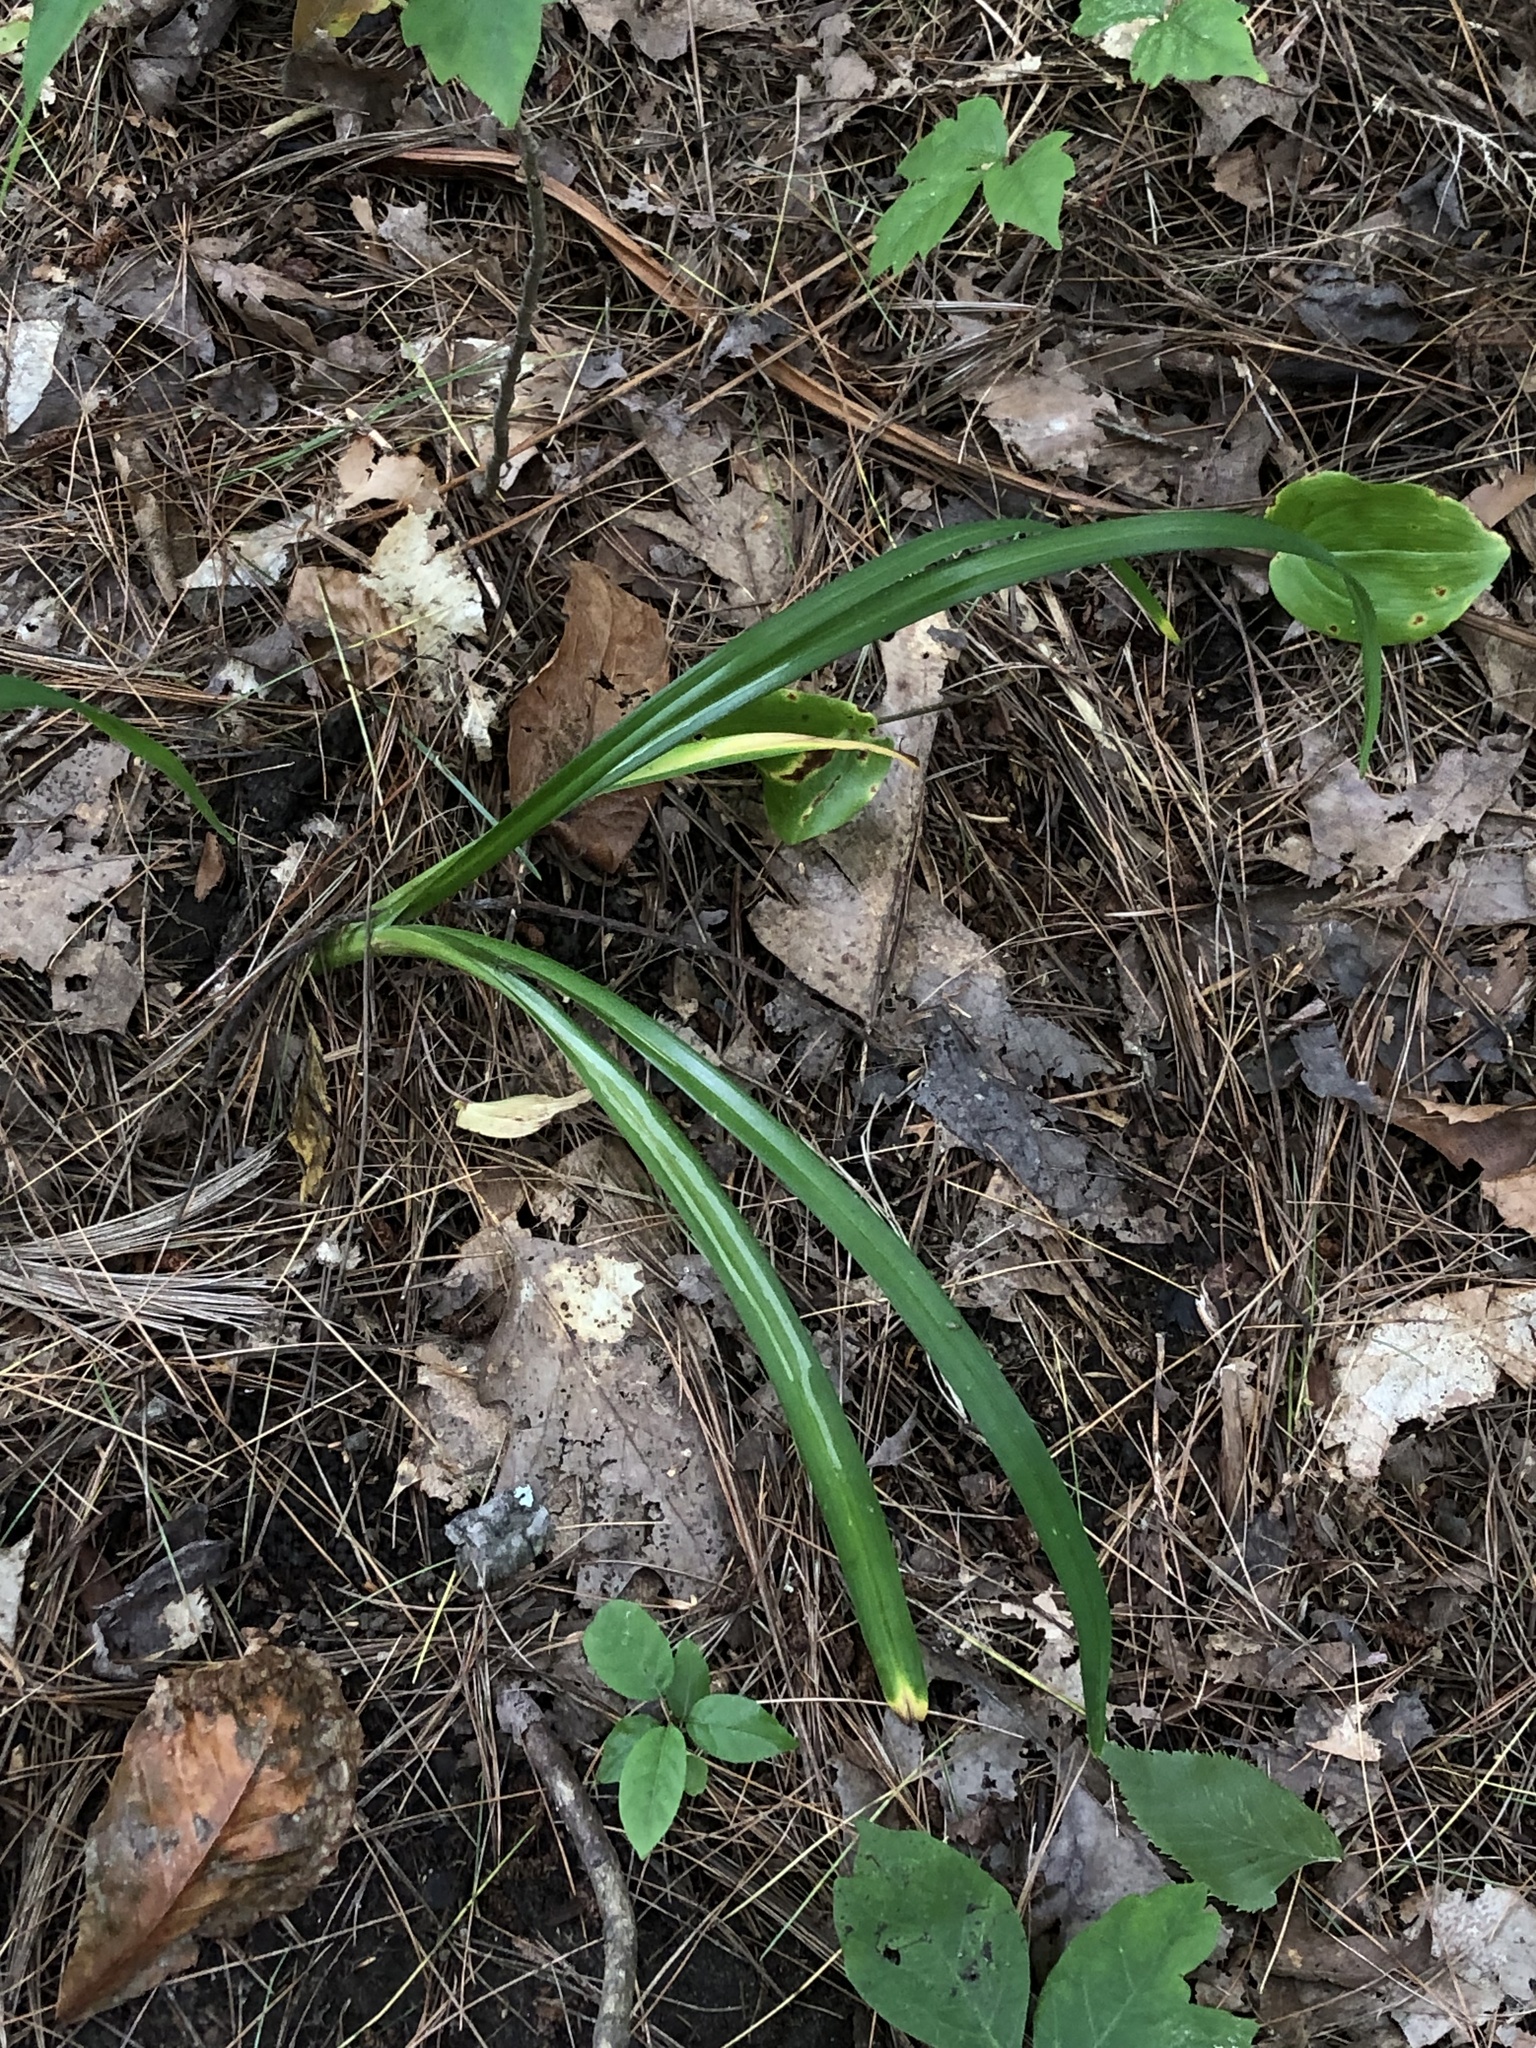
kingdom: Plantae
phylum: Tracheophyta
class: Liliopsida
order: Poales
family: Cyperaceae
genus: Carex
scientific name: Carex
